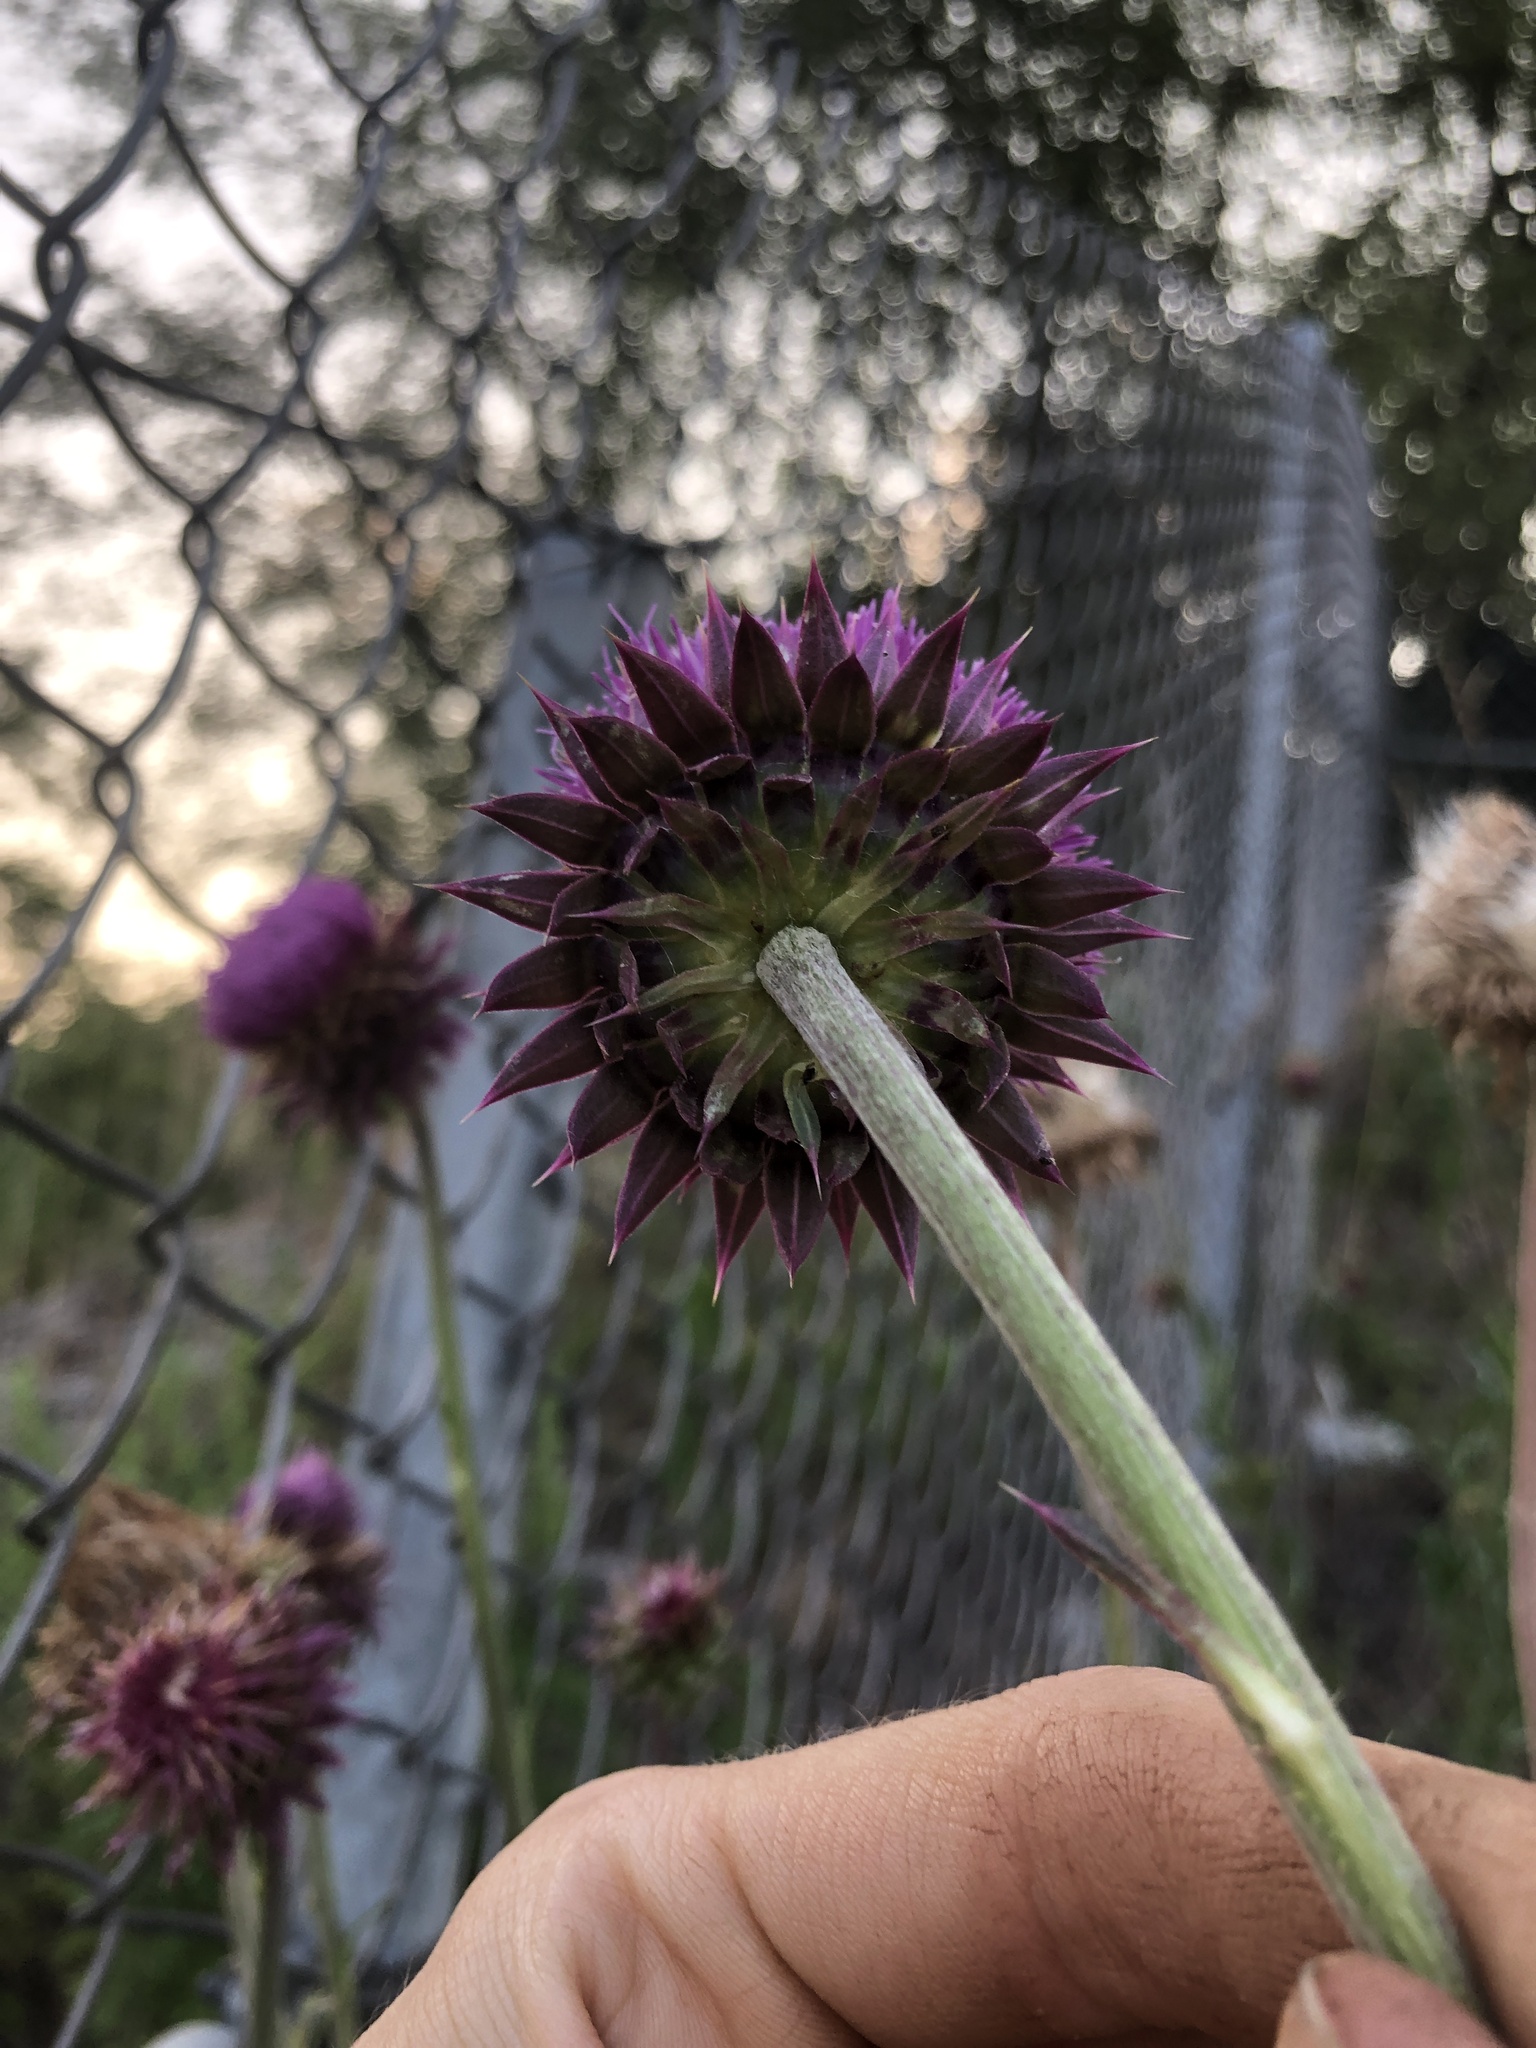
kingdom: Plantae
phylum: Tracheophyta
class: Magnoliopsida
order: Asterales
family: Asteraceae
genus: Carduus
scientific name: Carduus nutans
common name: Musk thistle
